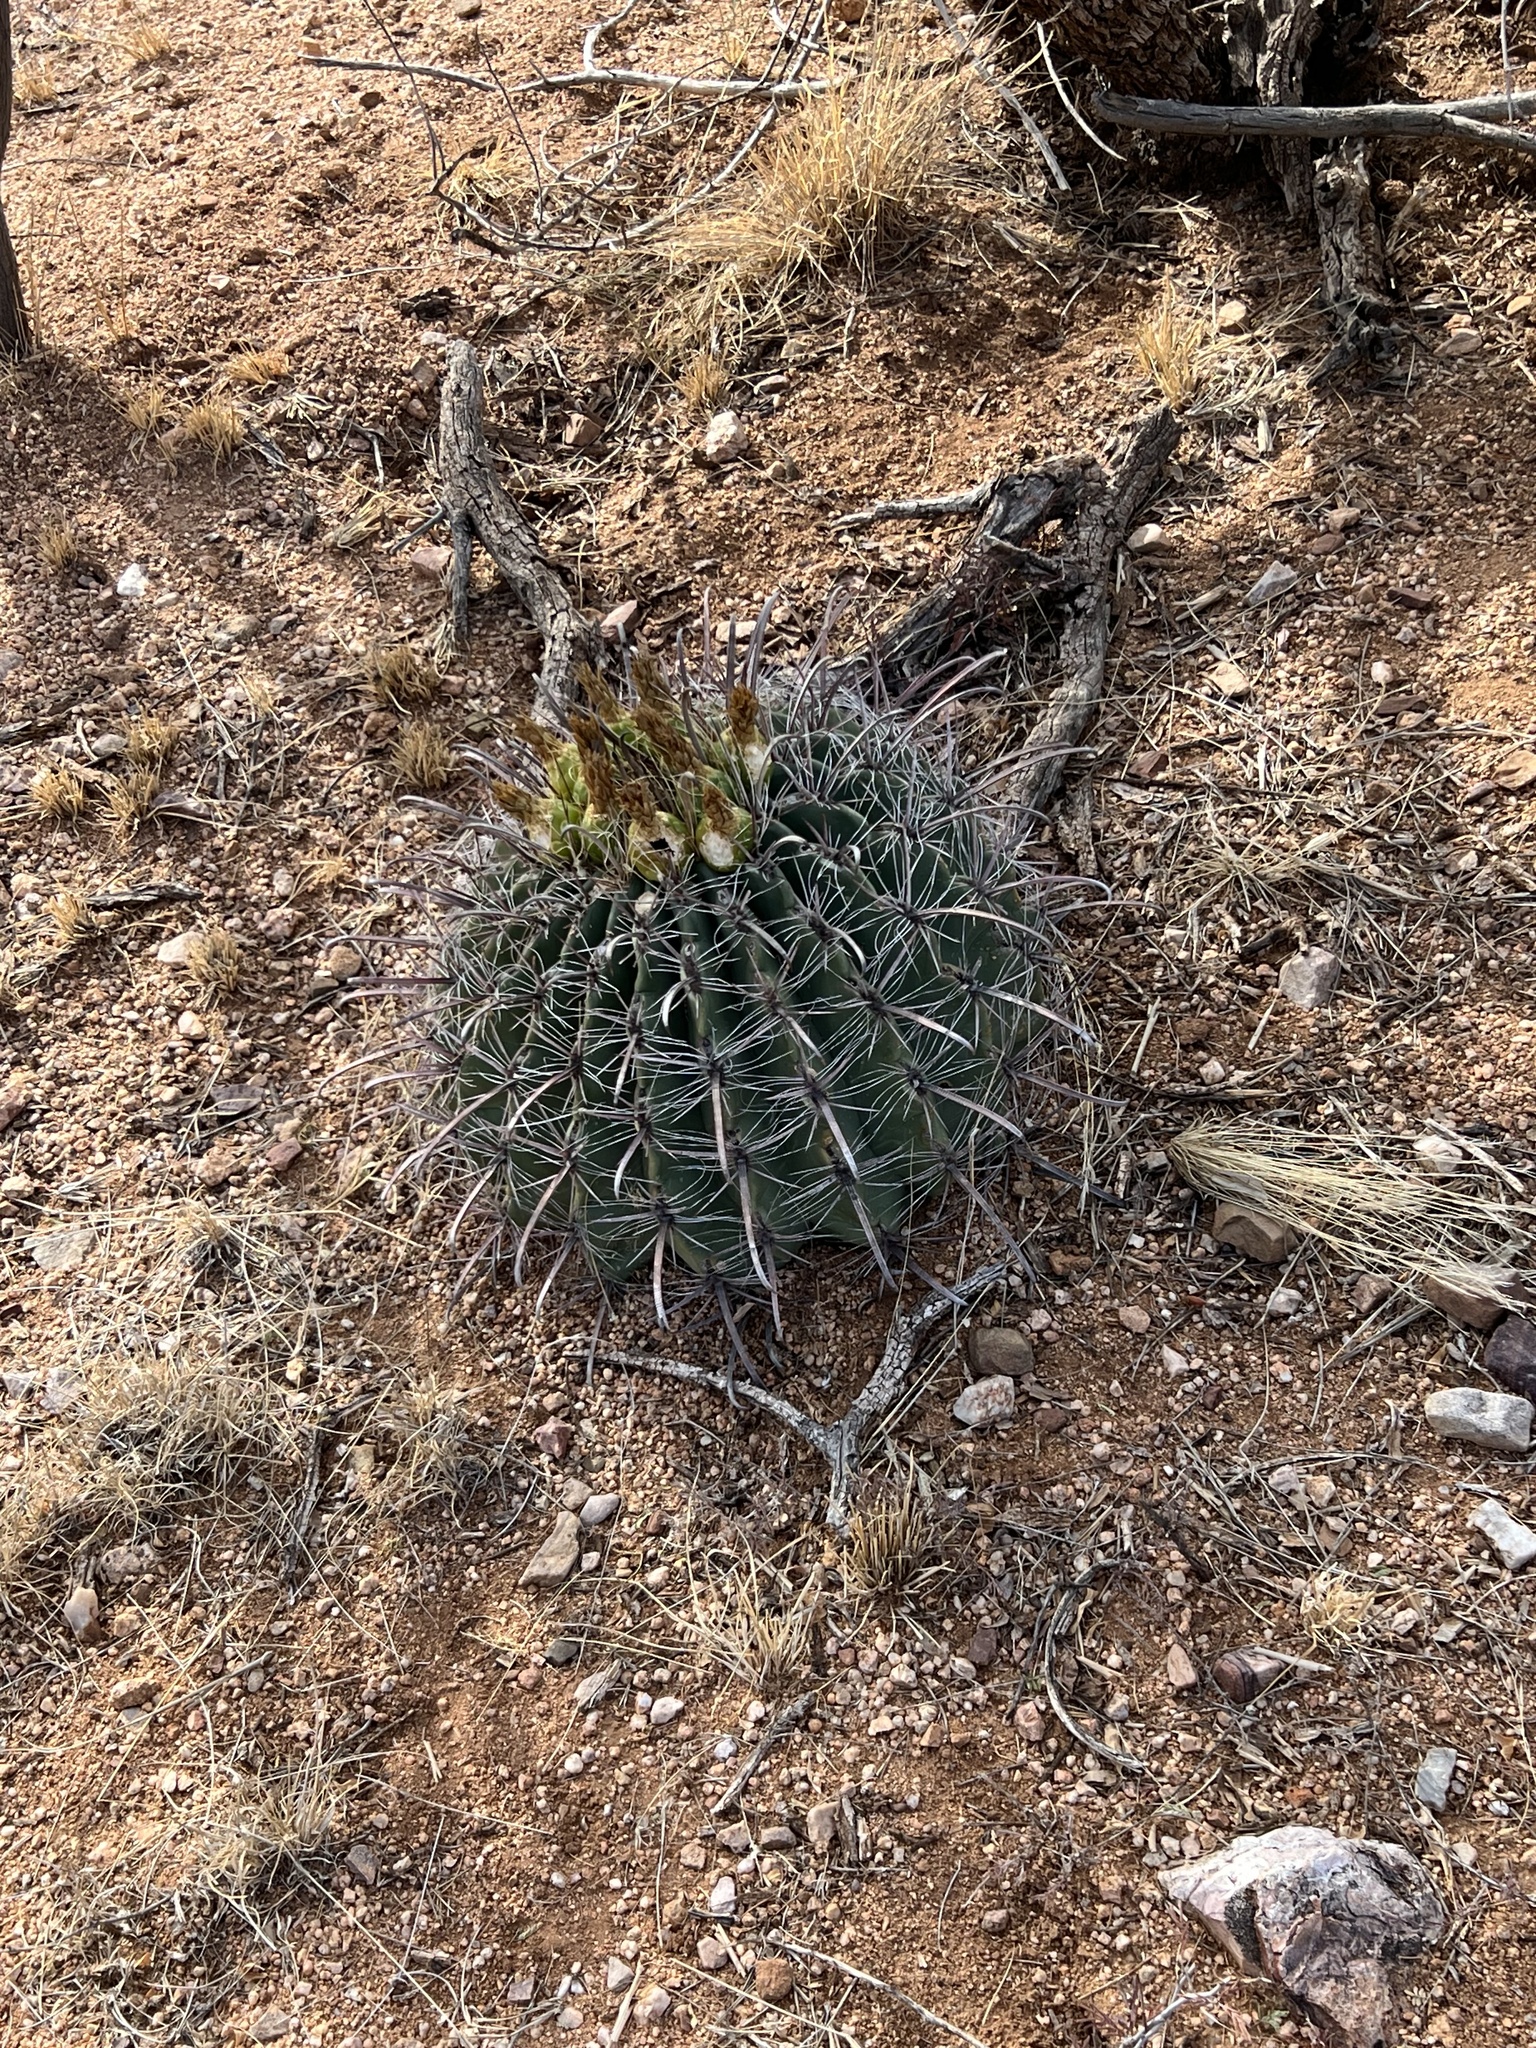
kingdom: Plantae
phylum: Tracheophyta
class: Magnoliopsida
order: Caryophyllales
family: Cactaceae
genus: Ferocactus
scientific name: Ferocactus wislizeni
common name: Candy barrel cactus
